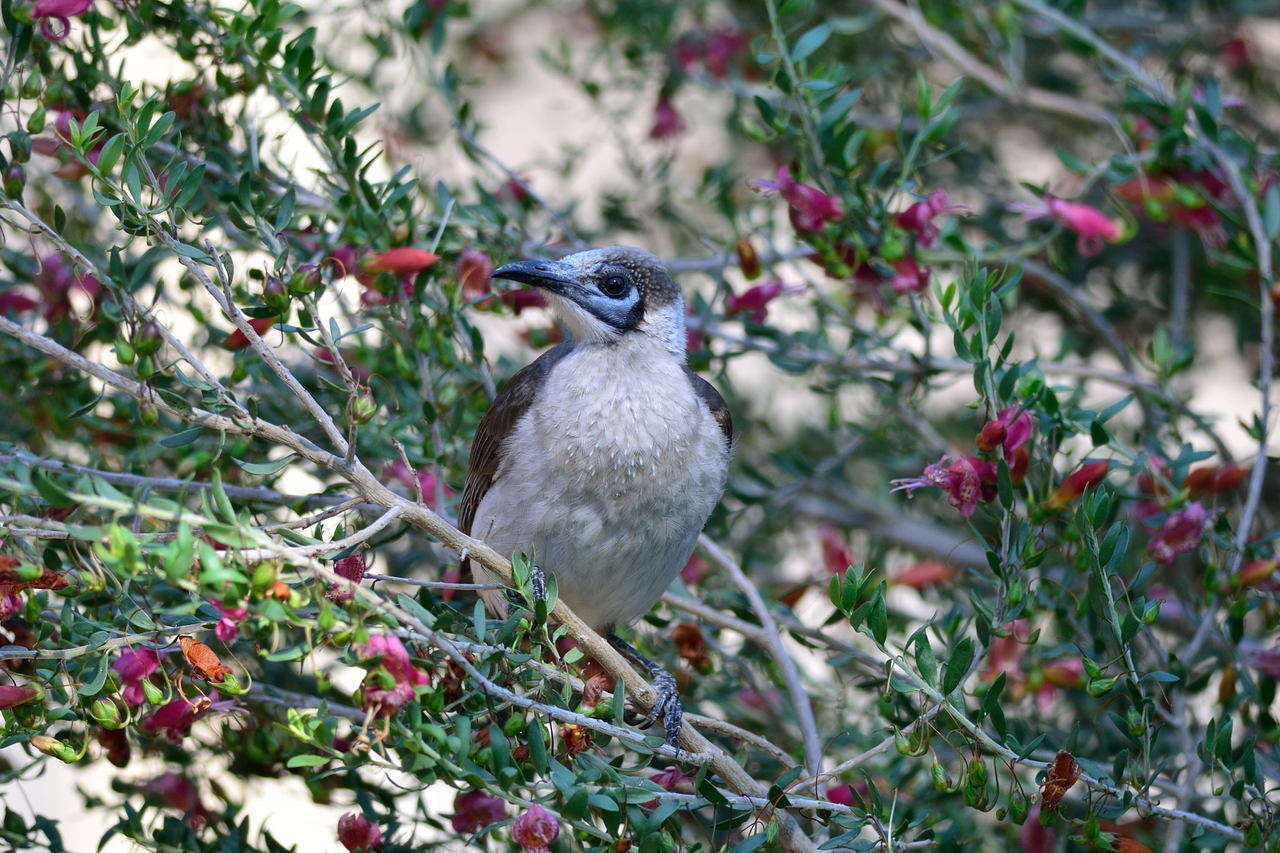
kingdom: Animalia
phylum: Chordata
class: Aves
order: Passeriformes
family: Meliphagidae
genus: Philemon
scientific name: Philemon citreogularis
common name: Little friarbird
